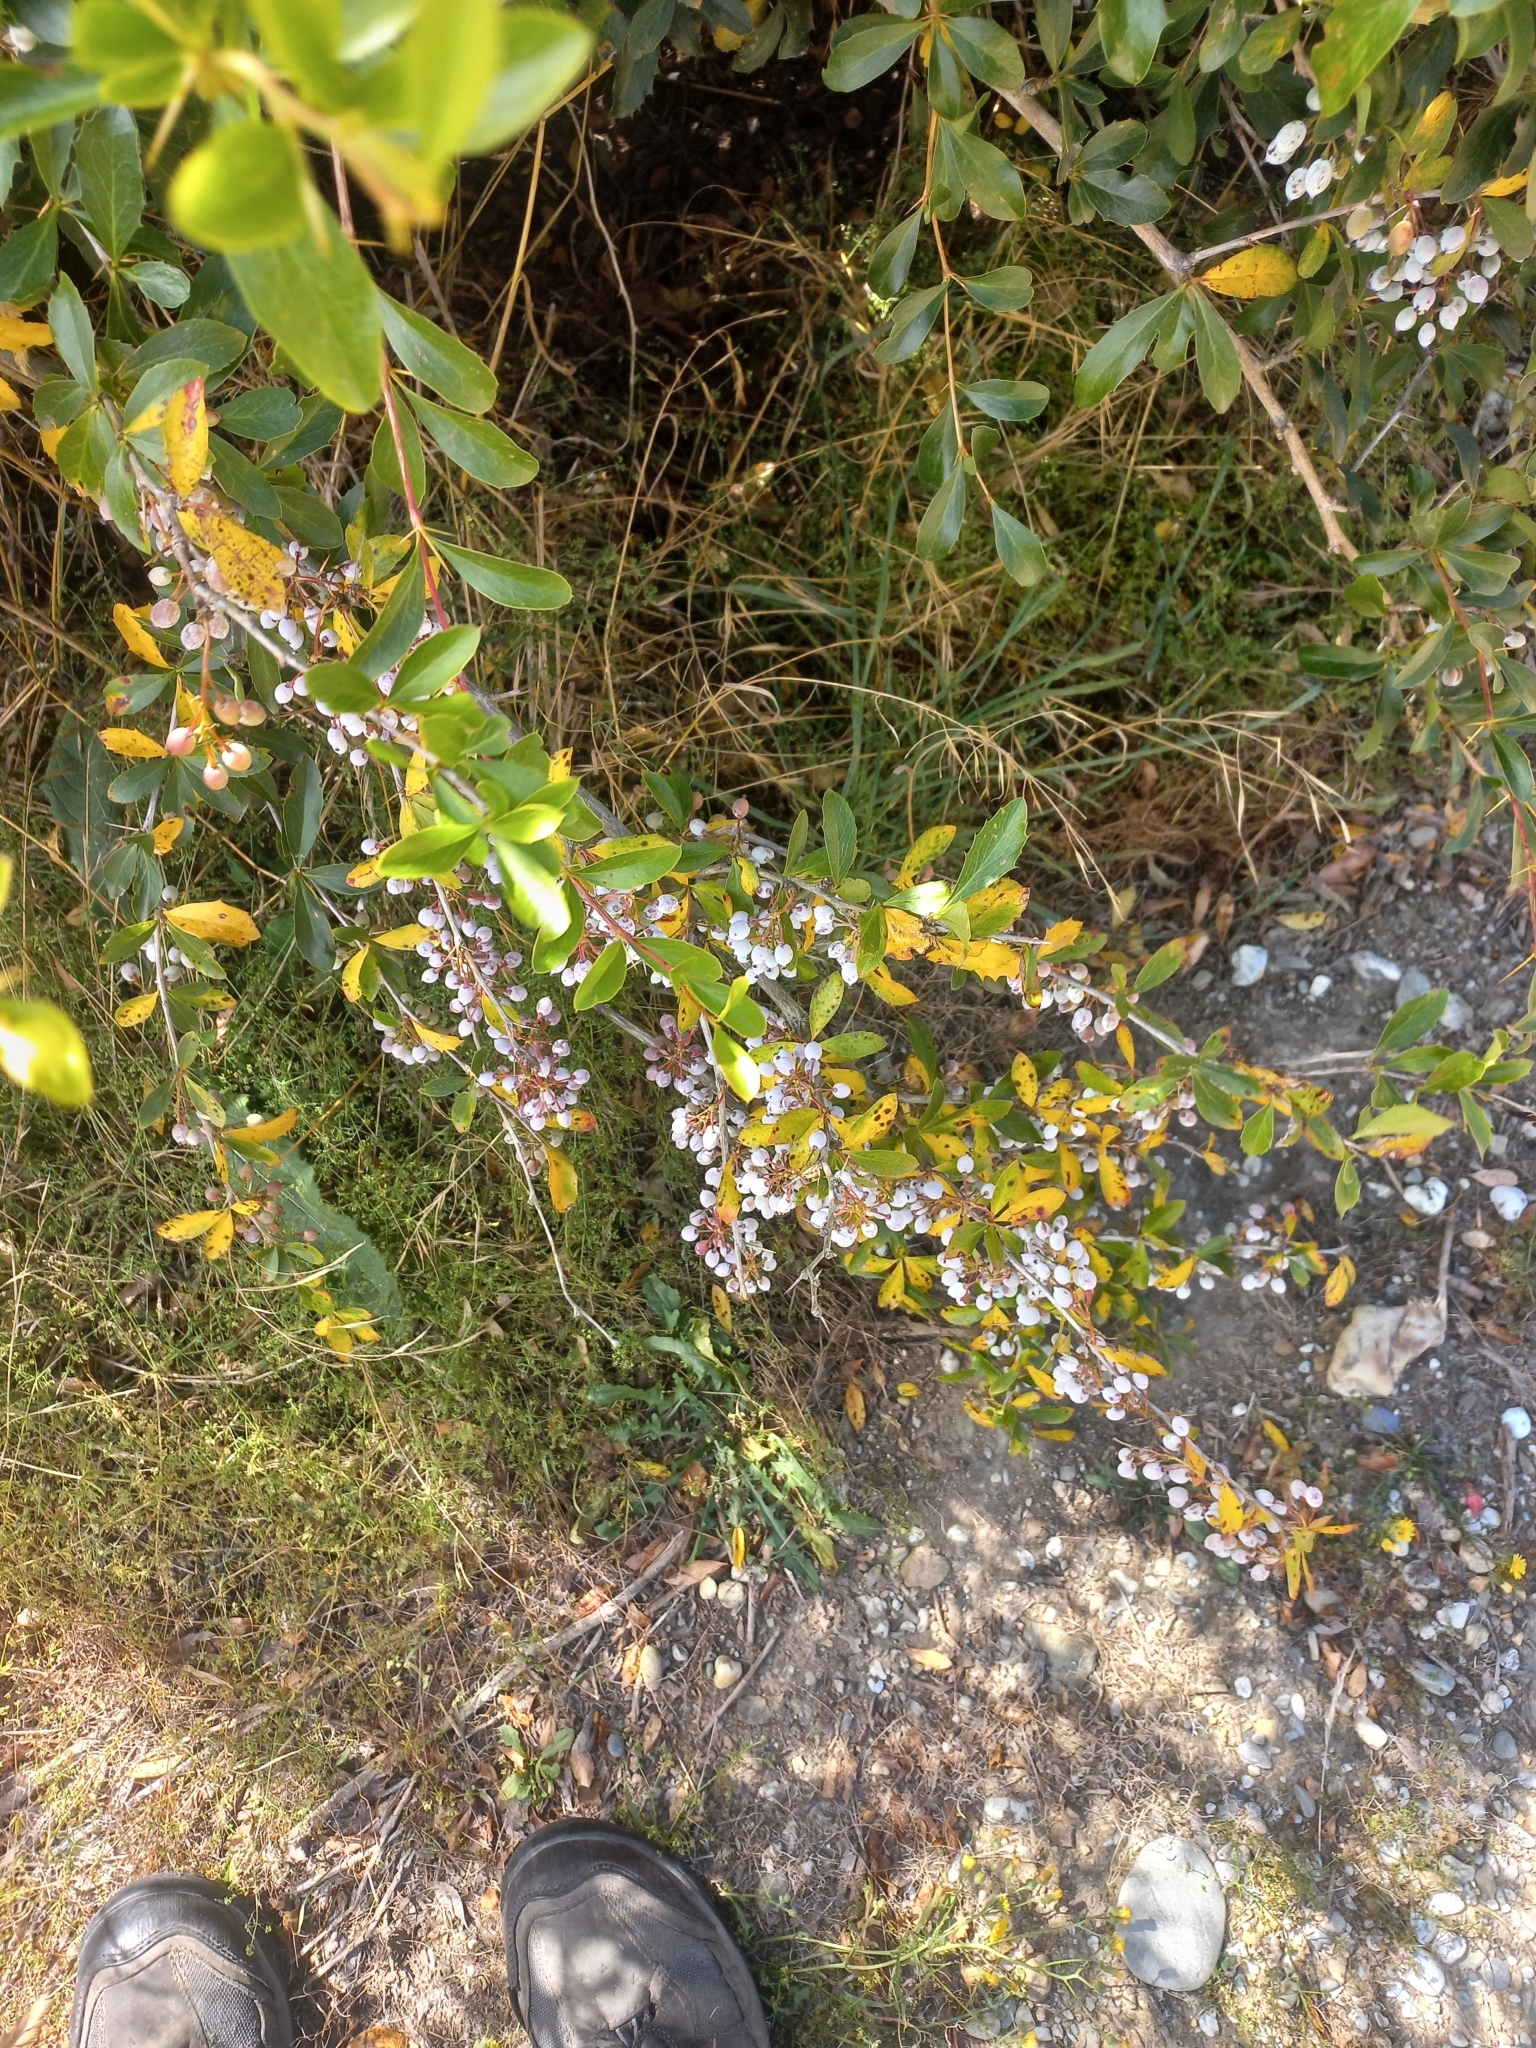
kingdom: Plantae
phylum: Tracheophyta
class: Magnoliopsida
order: Ranunculales
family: Berberidaceae
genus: Berberis
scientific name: Berberis glaucocarpa
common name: Great barberry
